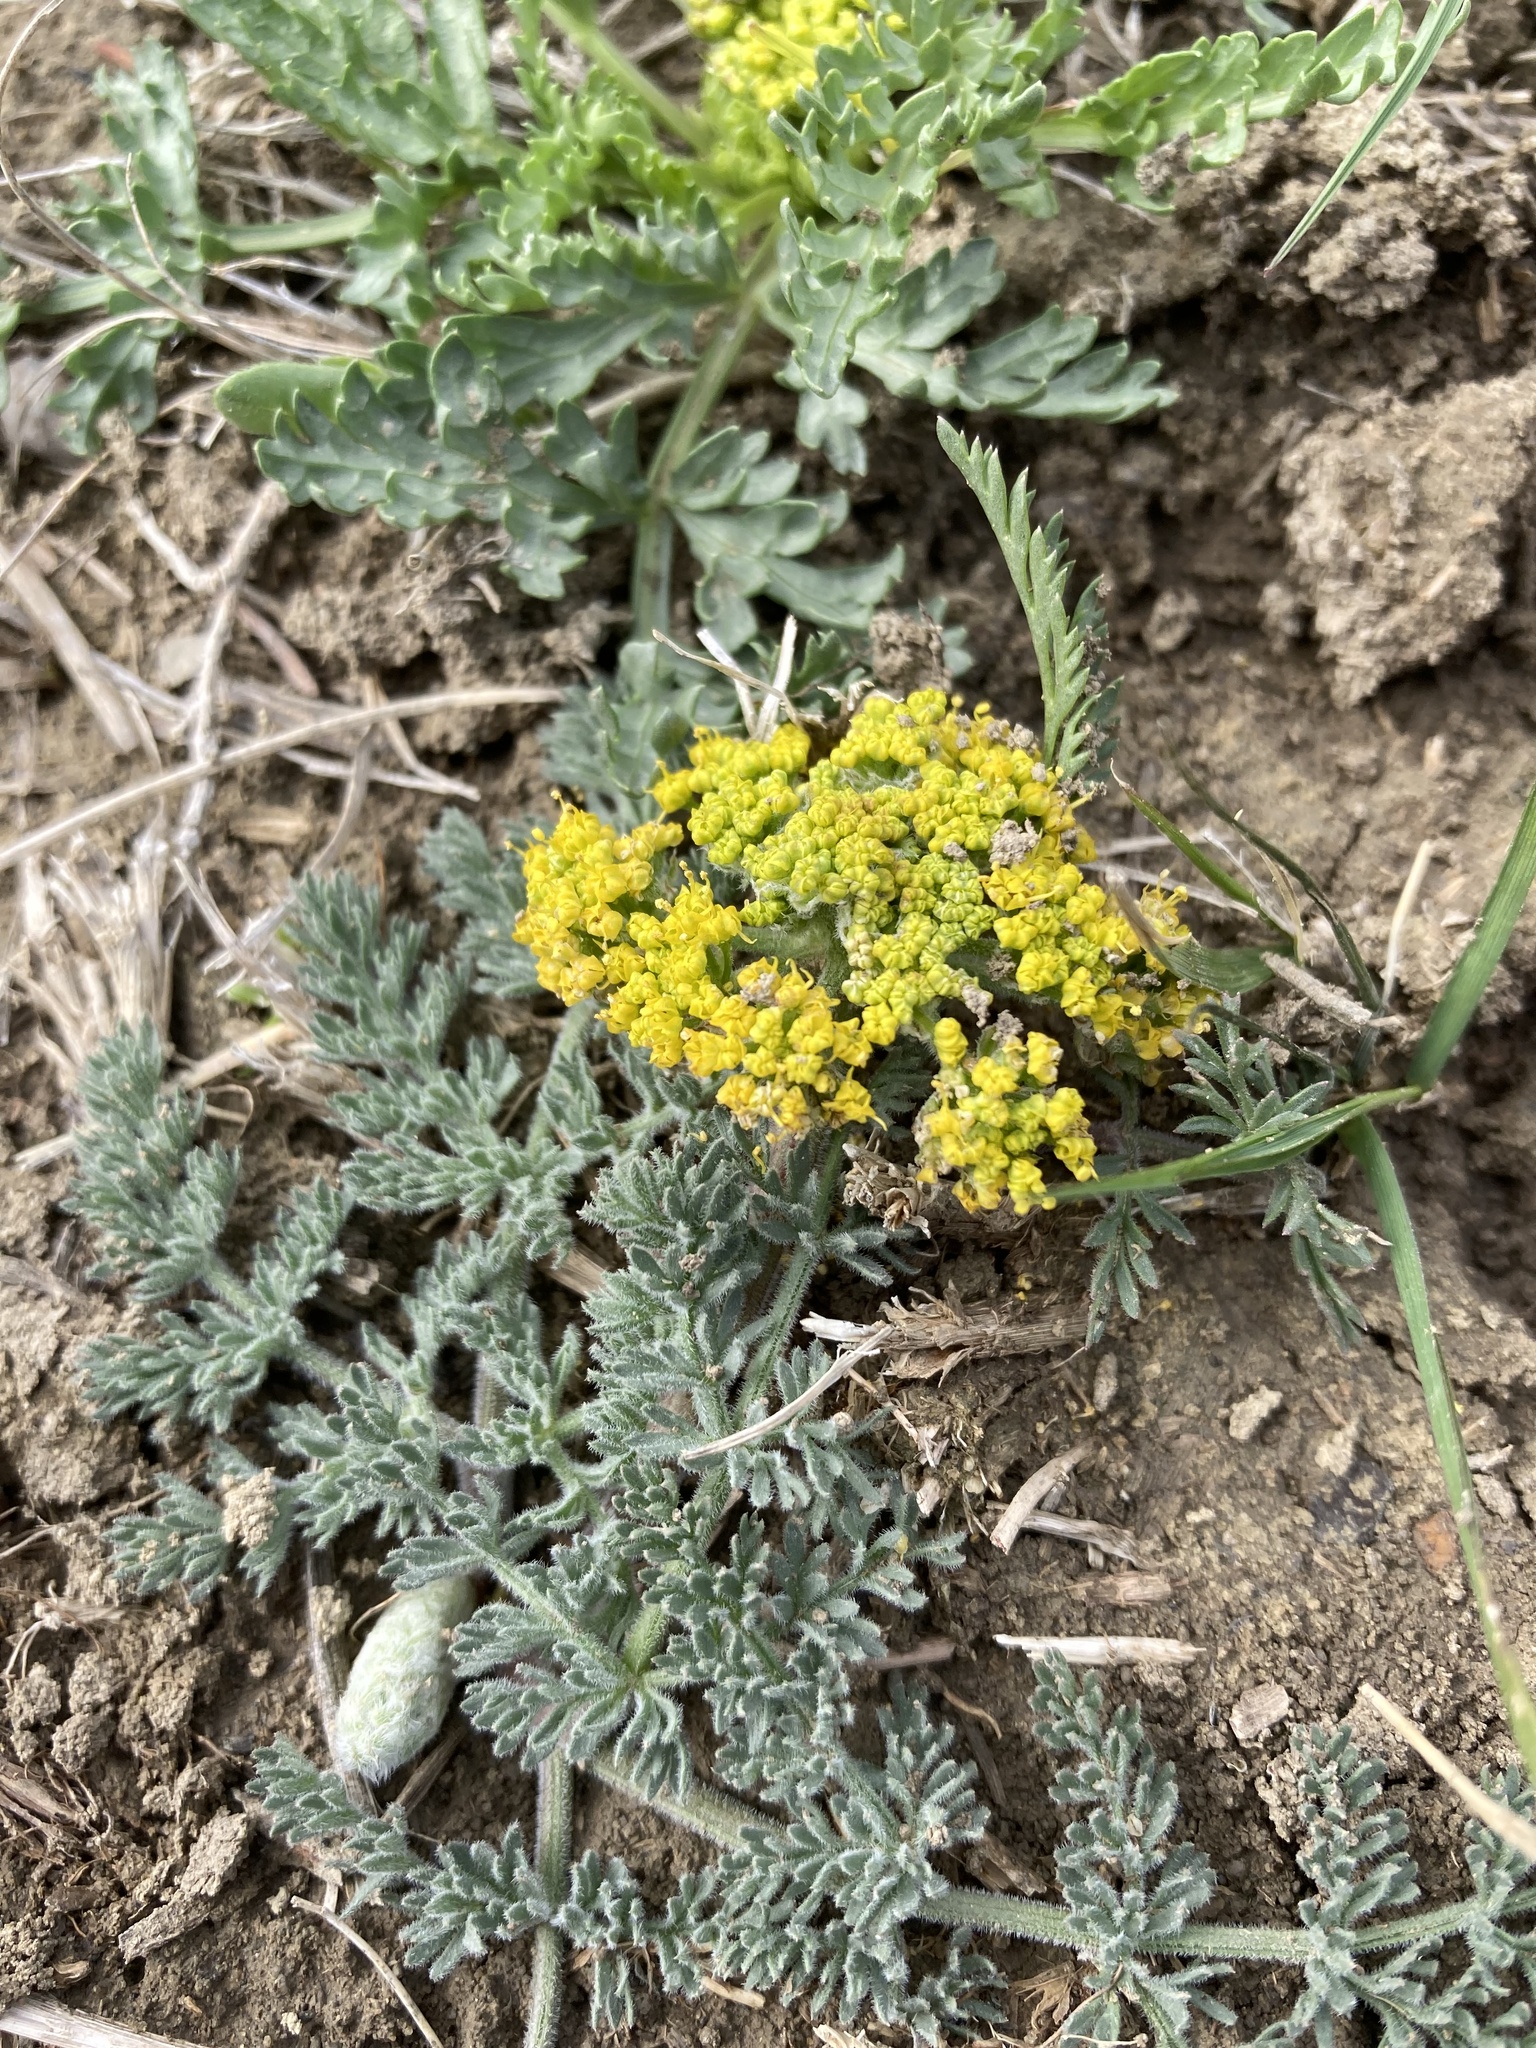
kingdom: Plantae
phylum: Tracheophyta
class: Magnoliopsida
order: Apiales
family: Apiaceae
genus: Musineon
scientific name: Musineon divaricatum
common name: Plains musineon
